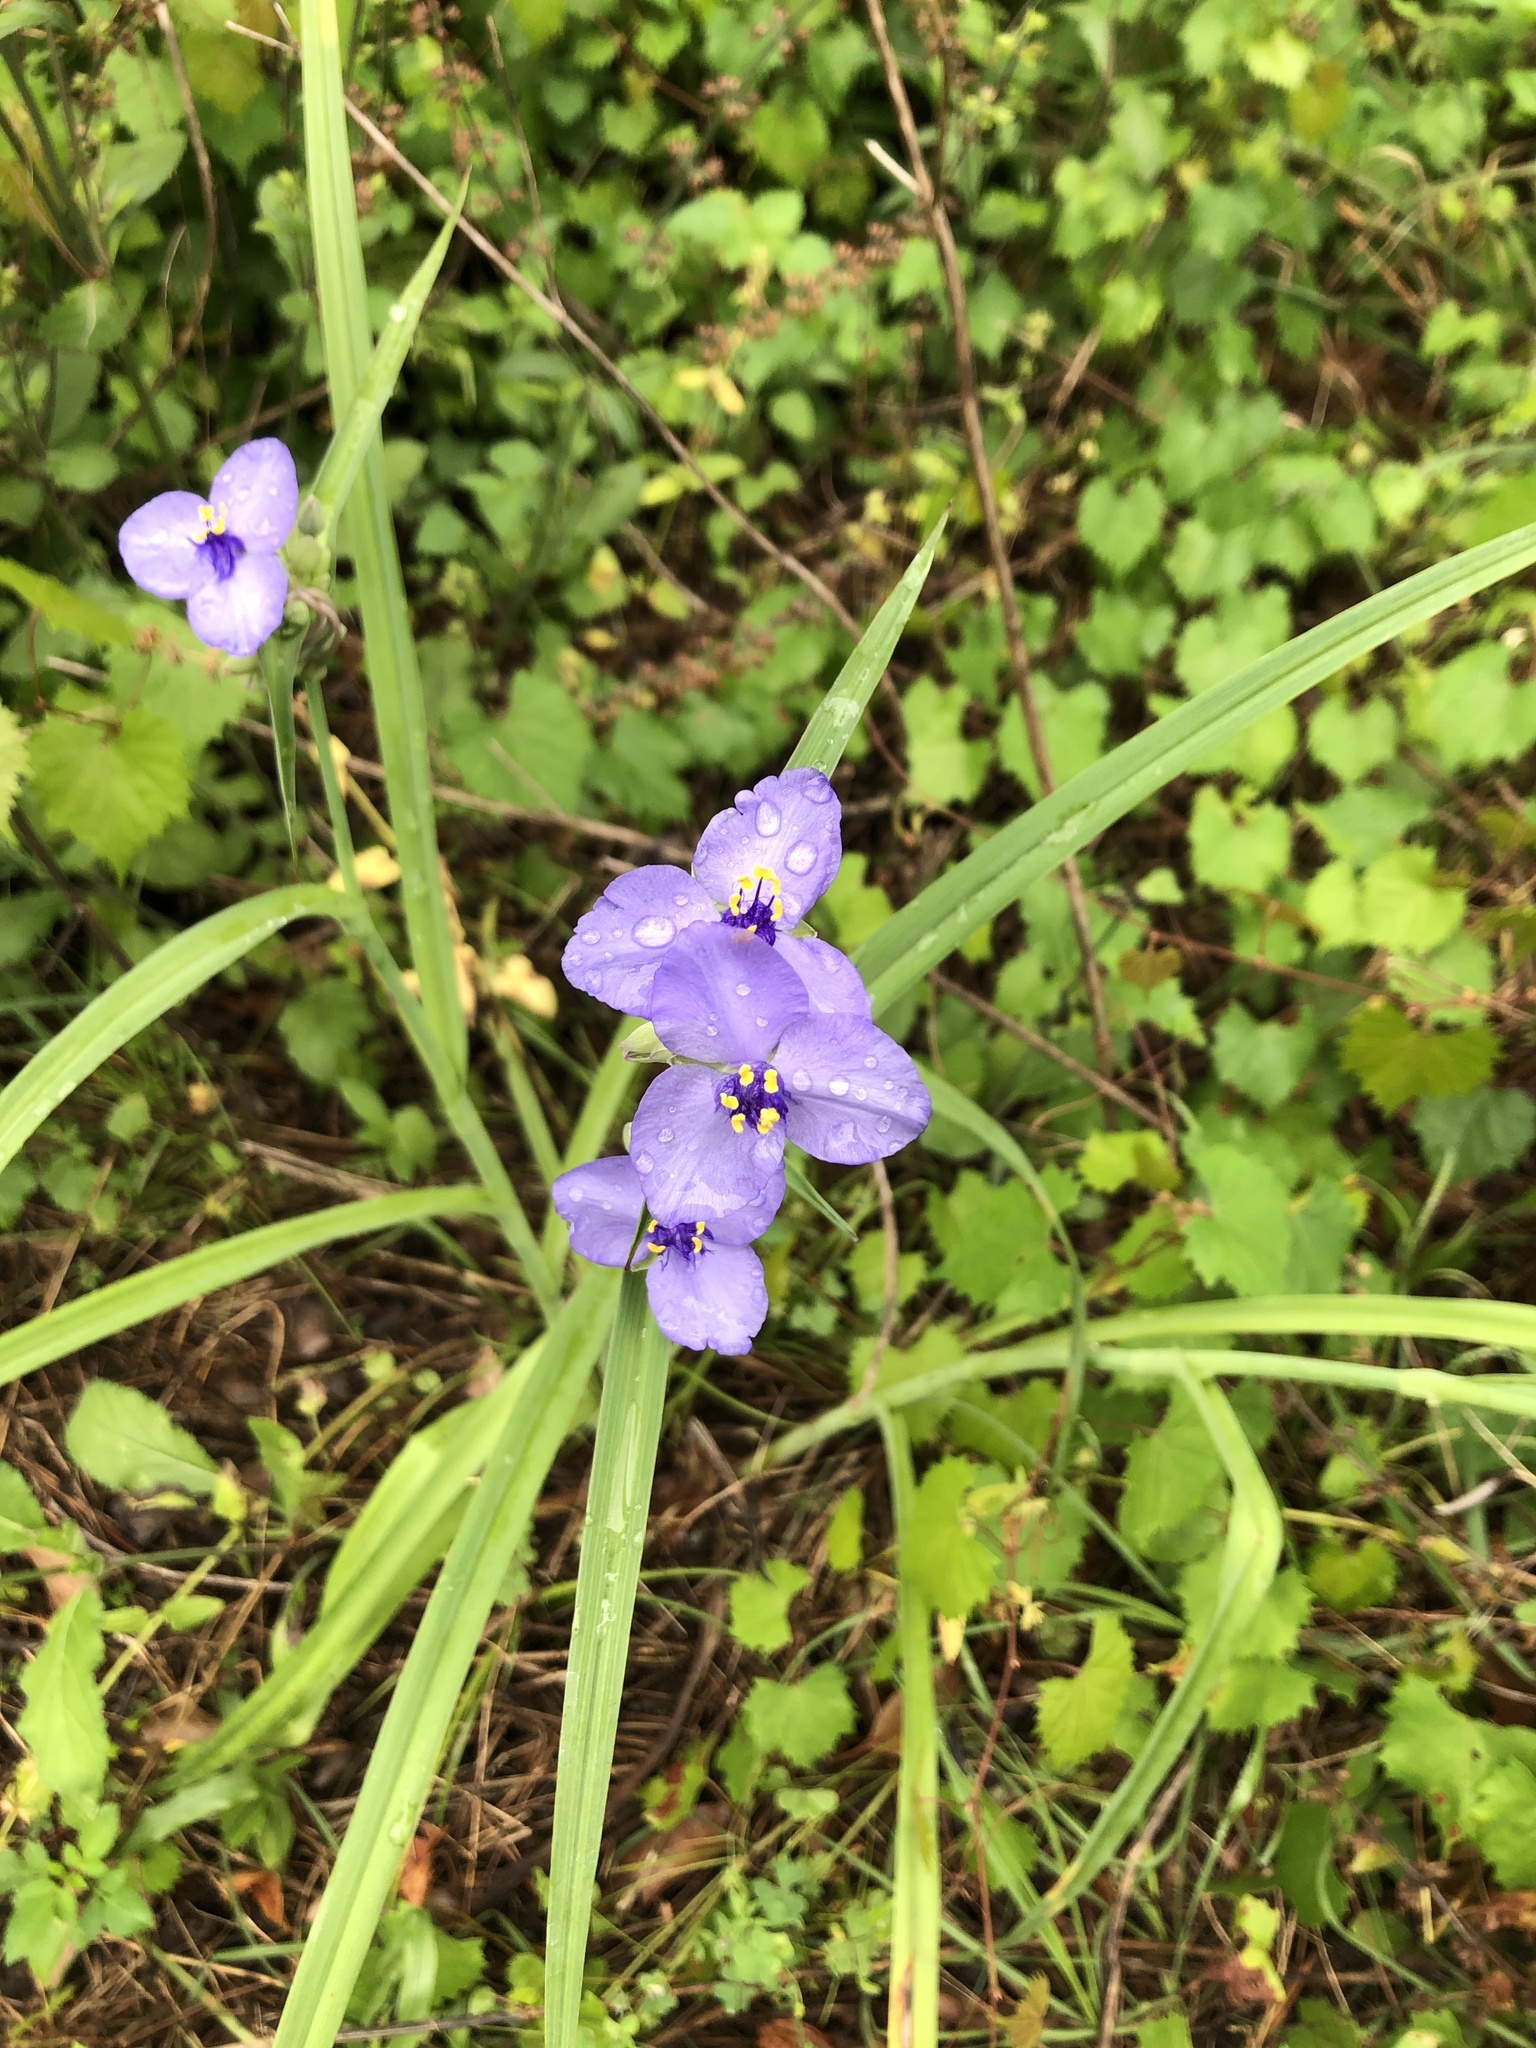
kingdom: Plantae
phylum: Tracheophyta
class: Liliopsida
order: Commelinales
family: Commelinaceae
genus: Tradescantia
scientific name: Tradescantia ohiensis
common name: Ohio spiderwort
